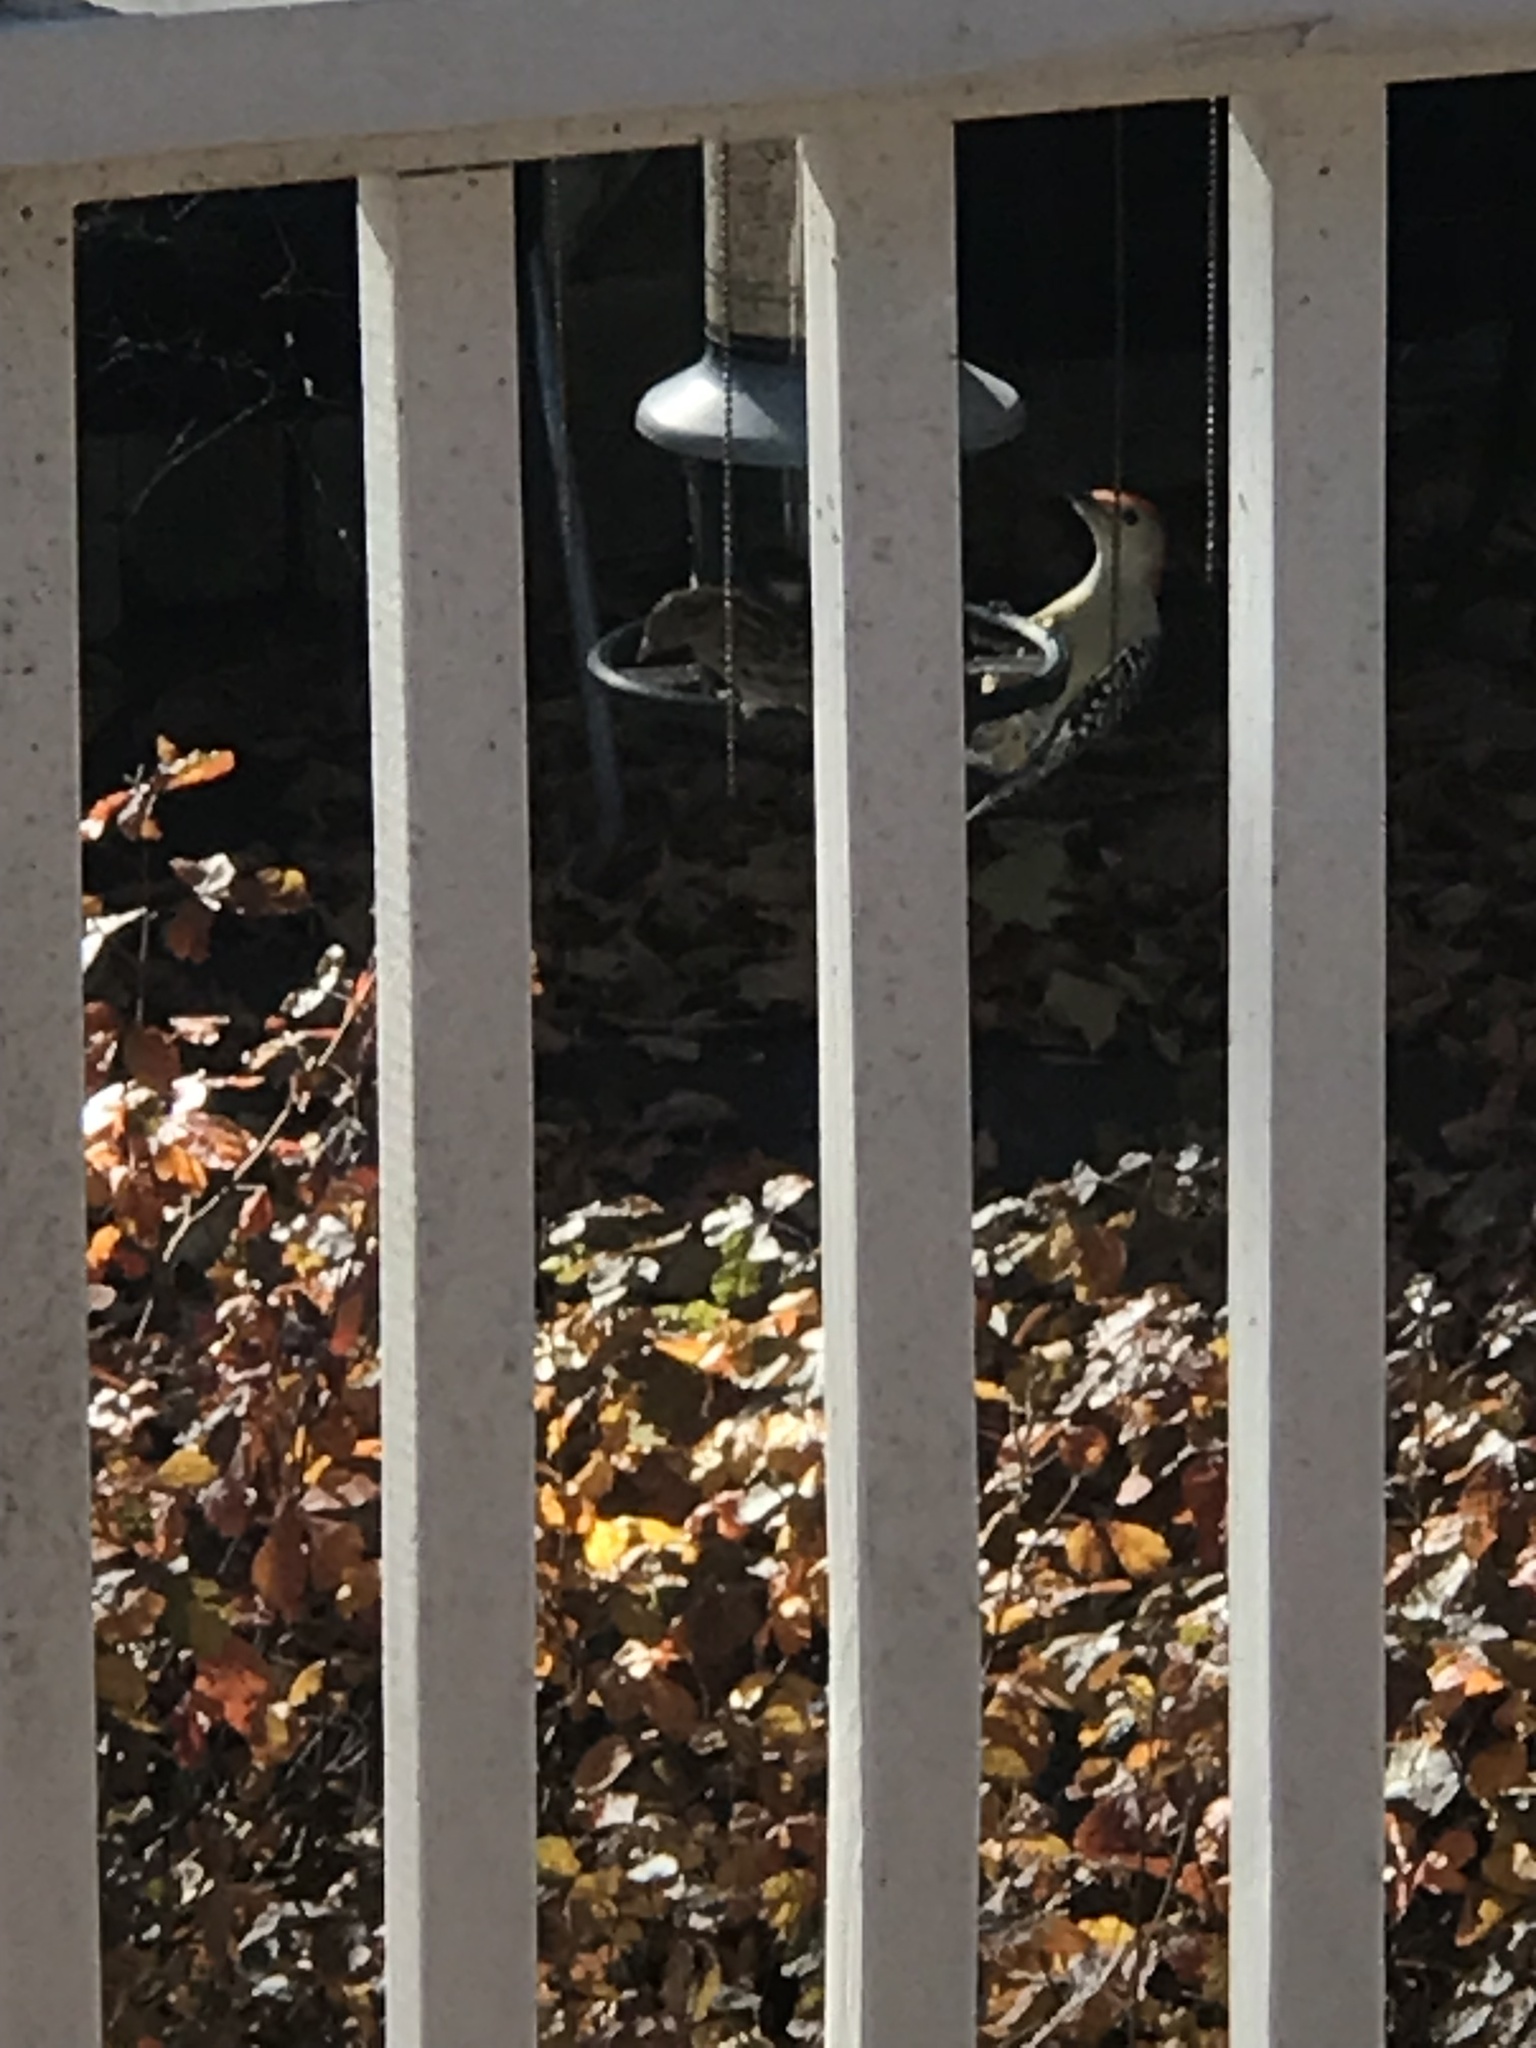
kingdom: Animalia
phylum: Chordata
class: Aves
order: Piciformes
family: Picidae
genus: Melanerpes
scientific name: Melanerpes carolinus
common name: Red-bellied woodpecker
